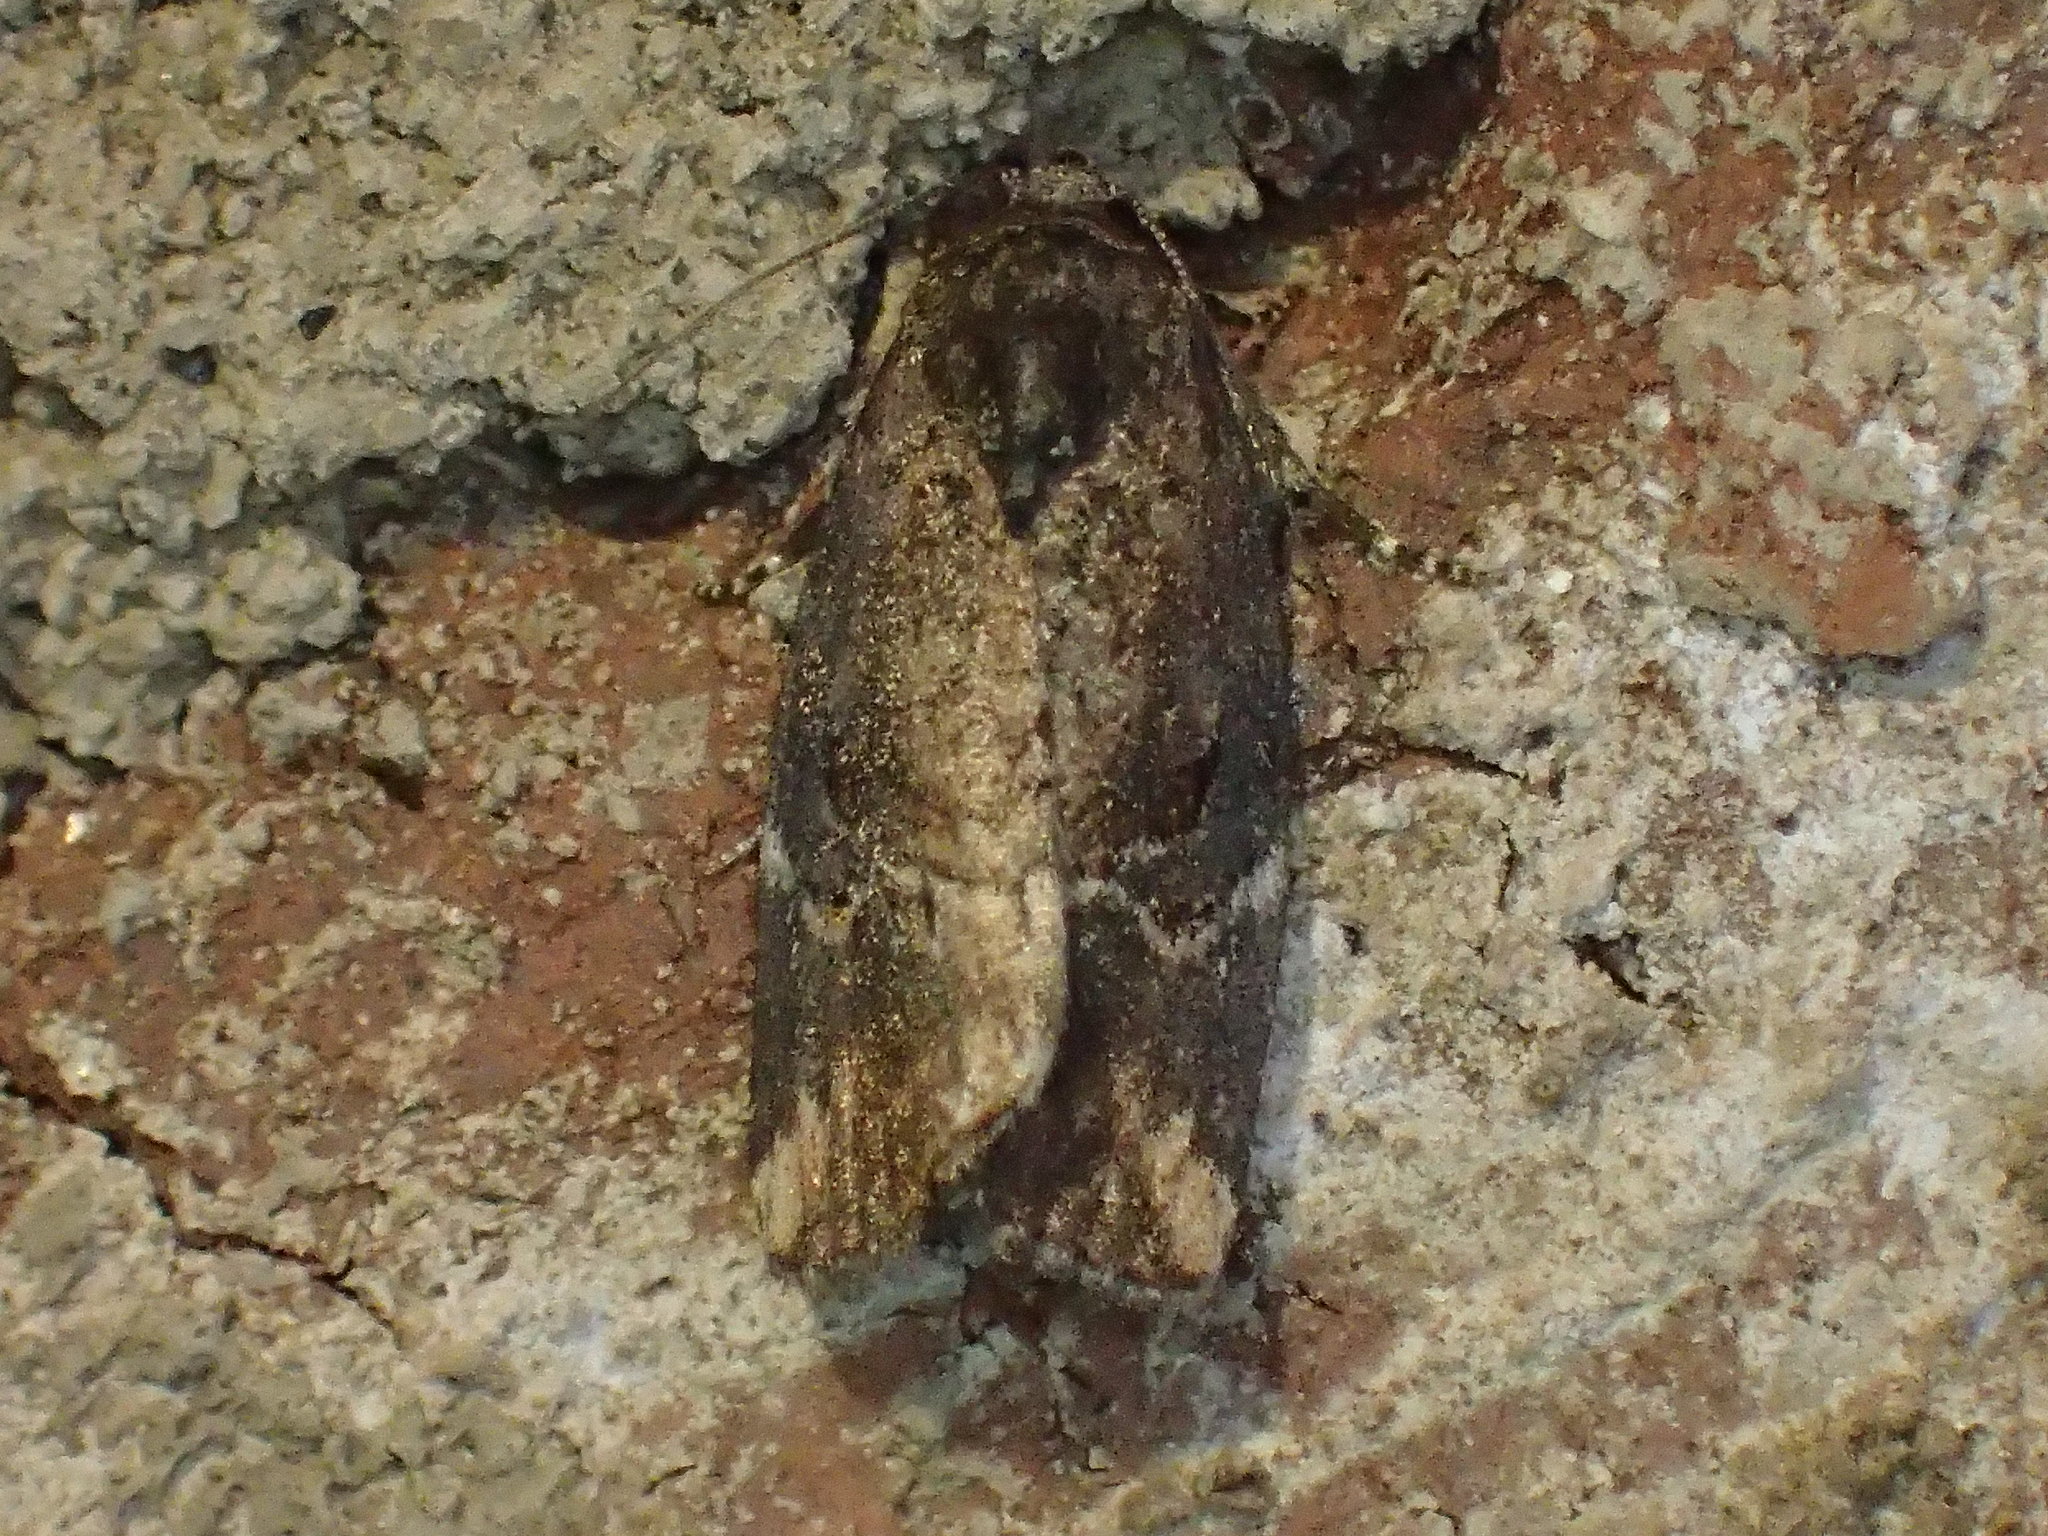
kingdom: Animalia
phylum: Arthropoda
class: Insecta
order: Lepidoptera
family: Noctuidae
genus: Elaphria
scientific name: Elaphria versicolor
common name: Fir harlequin
